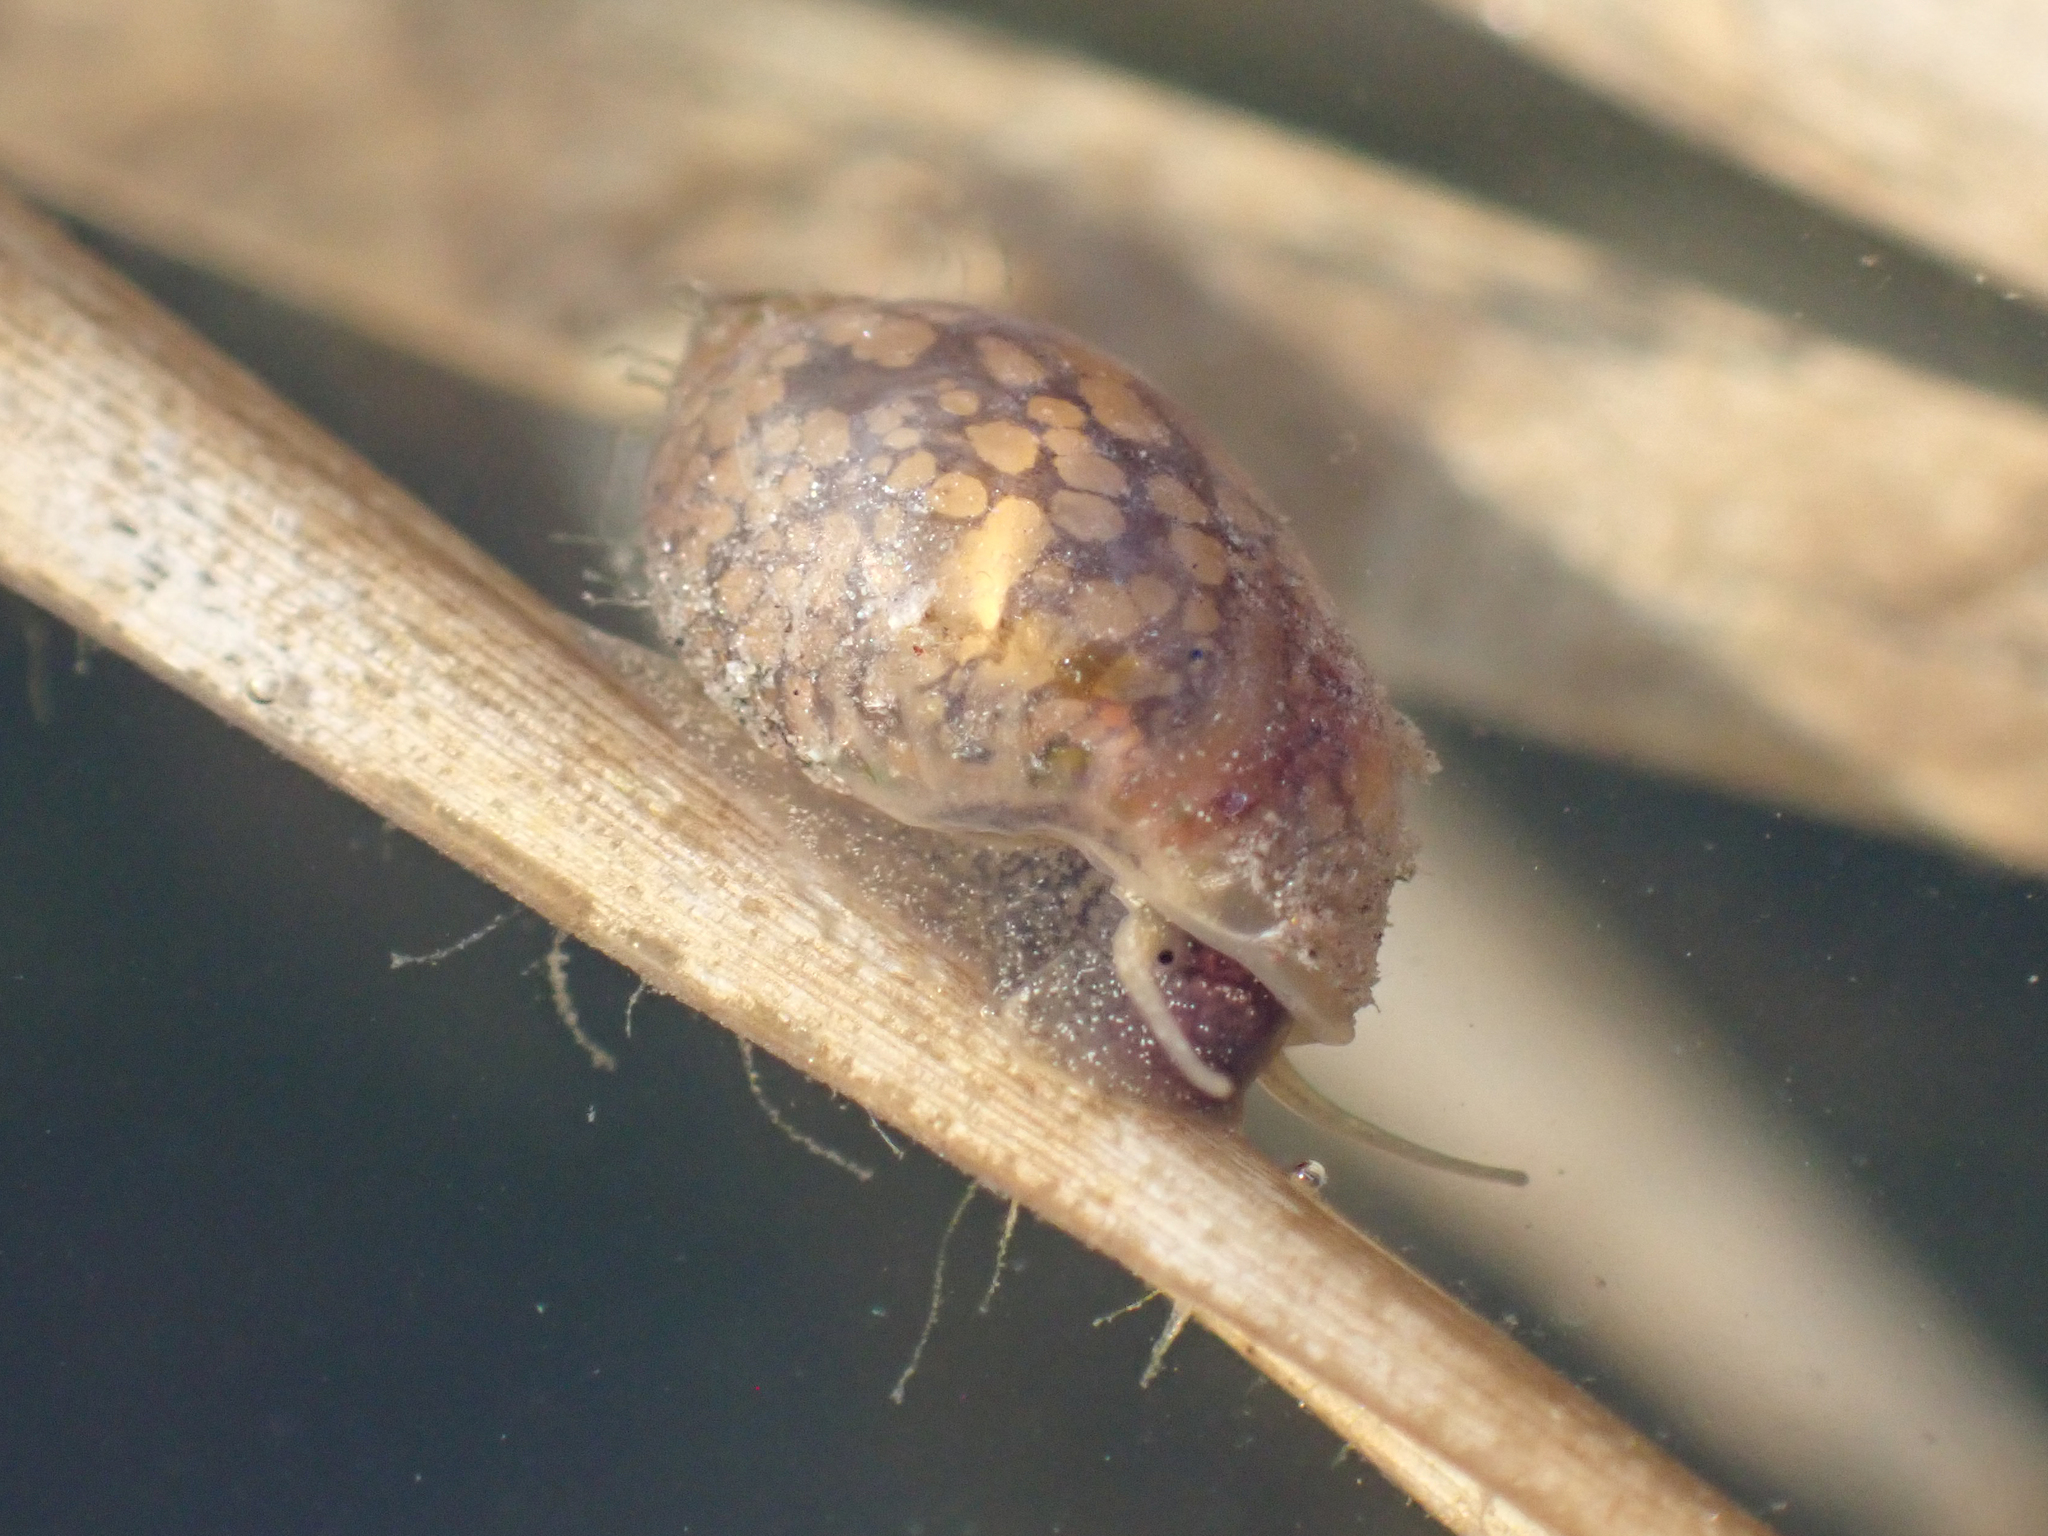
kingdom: Animalia
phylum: Mollusca
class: Gastropoda
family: Physidae
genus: Physella
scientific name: Physella acuta
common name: European physa
